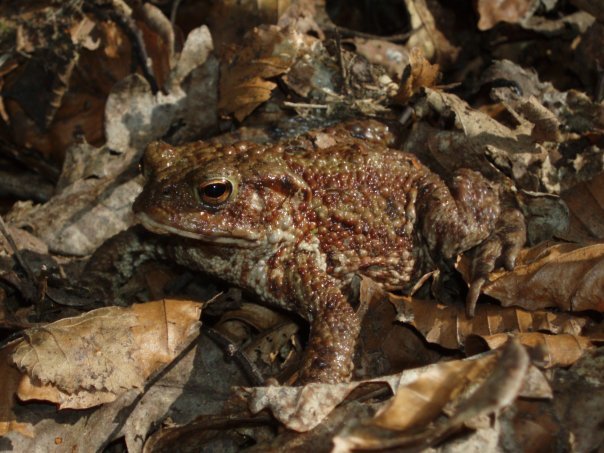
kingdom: Animalia
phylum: Chordata
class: Amphibia
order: Anura
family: Bufonidae
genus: Bufo
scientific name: Bufo bufo
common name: Common toad
